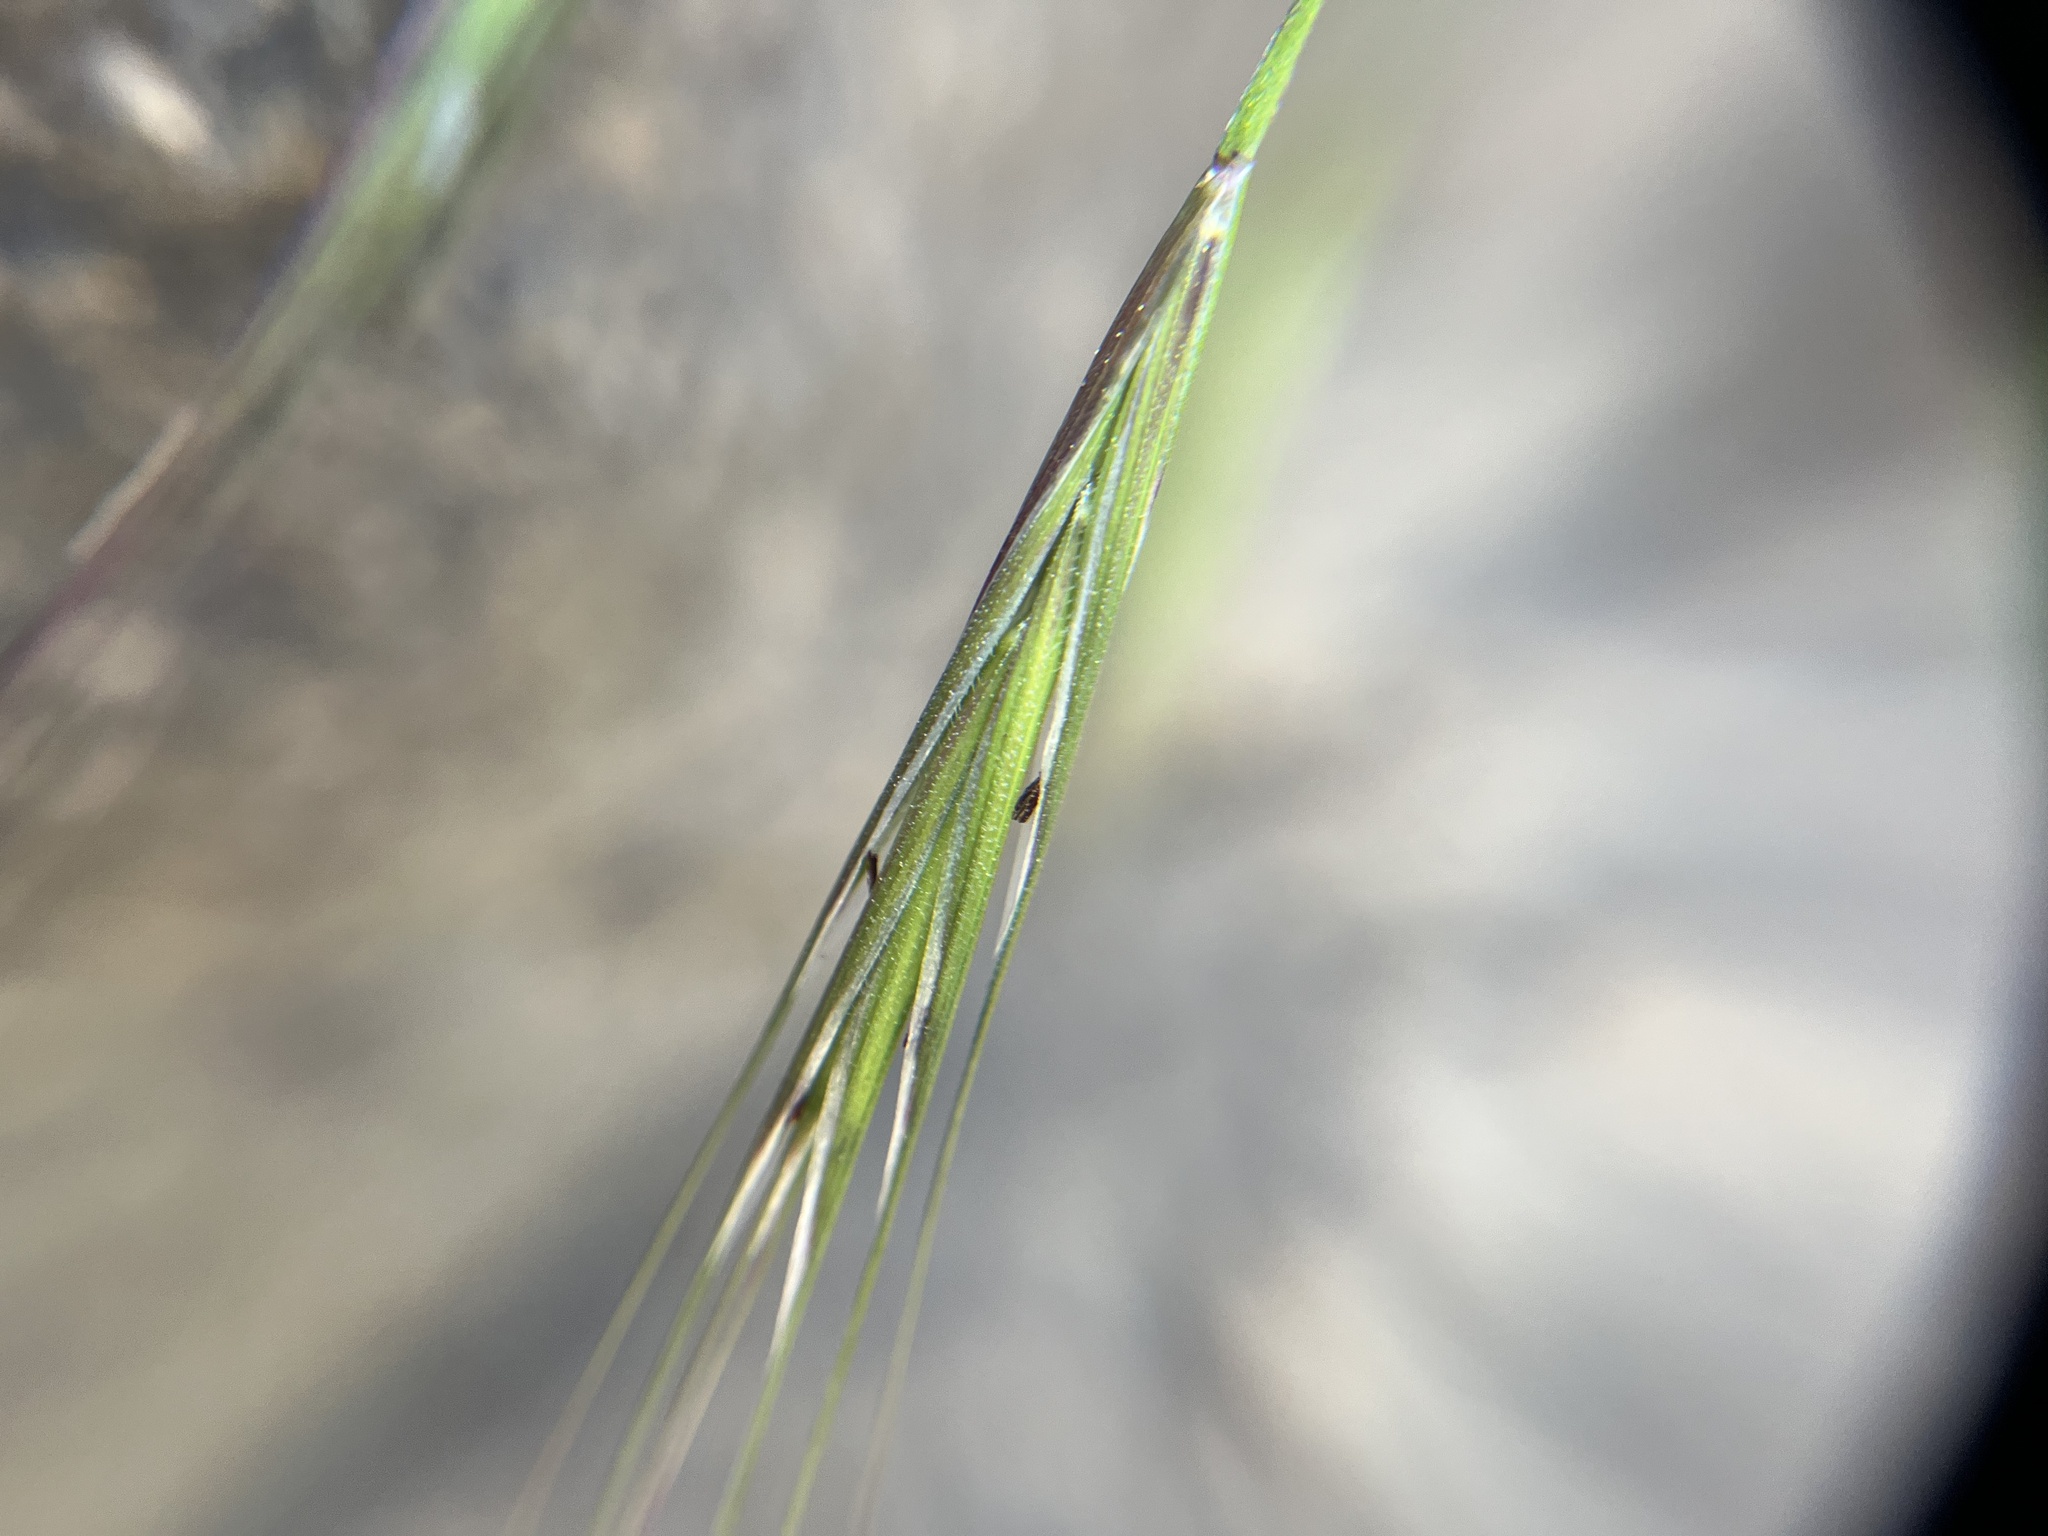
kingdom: Plantae
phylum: Tracheophyta
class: Liliopsida
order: Poales
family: Poaceae
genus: Bromus
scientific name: Bromus sterilis
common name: Poverty brome
